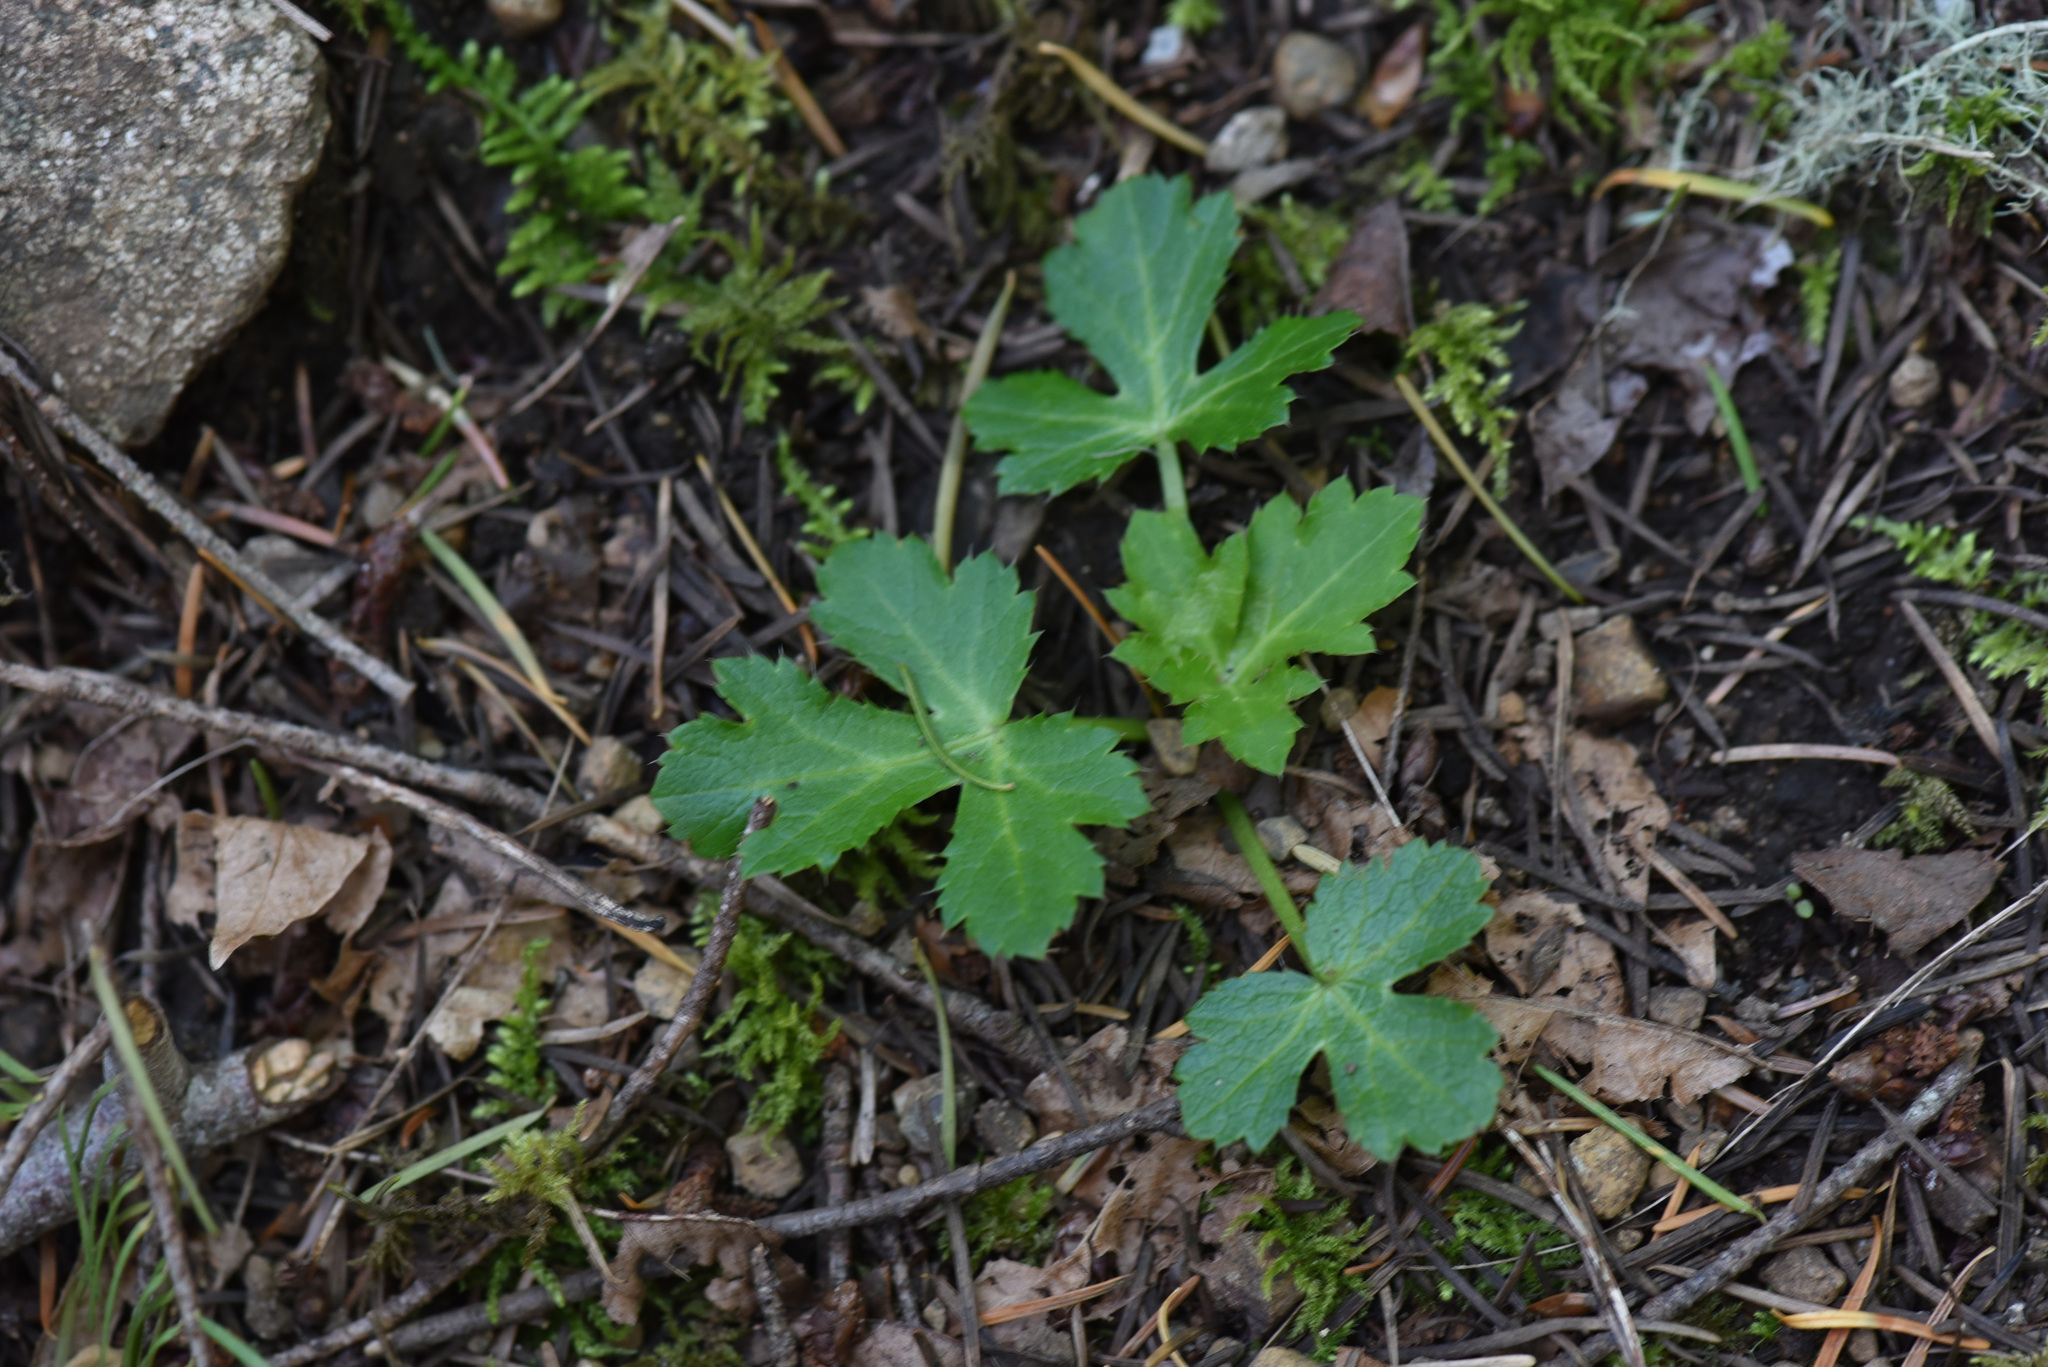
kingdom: Plantae
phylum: Tracheophyta
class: Magnoliopsida
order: Apiales
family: Apiaceae
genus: Sanicula
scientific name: Sanicula crassicaulis
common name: Western snakeroot
